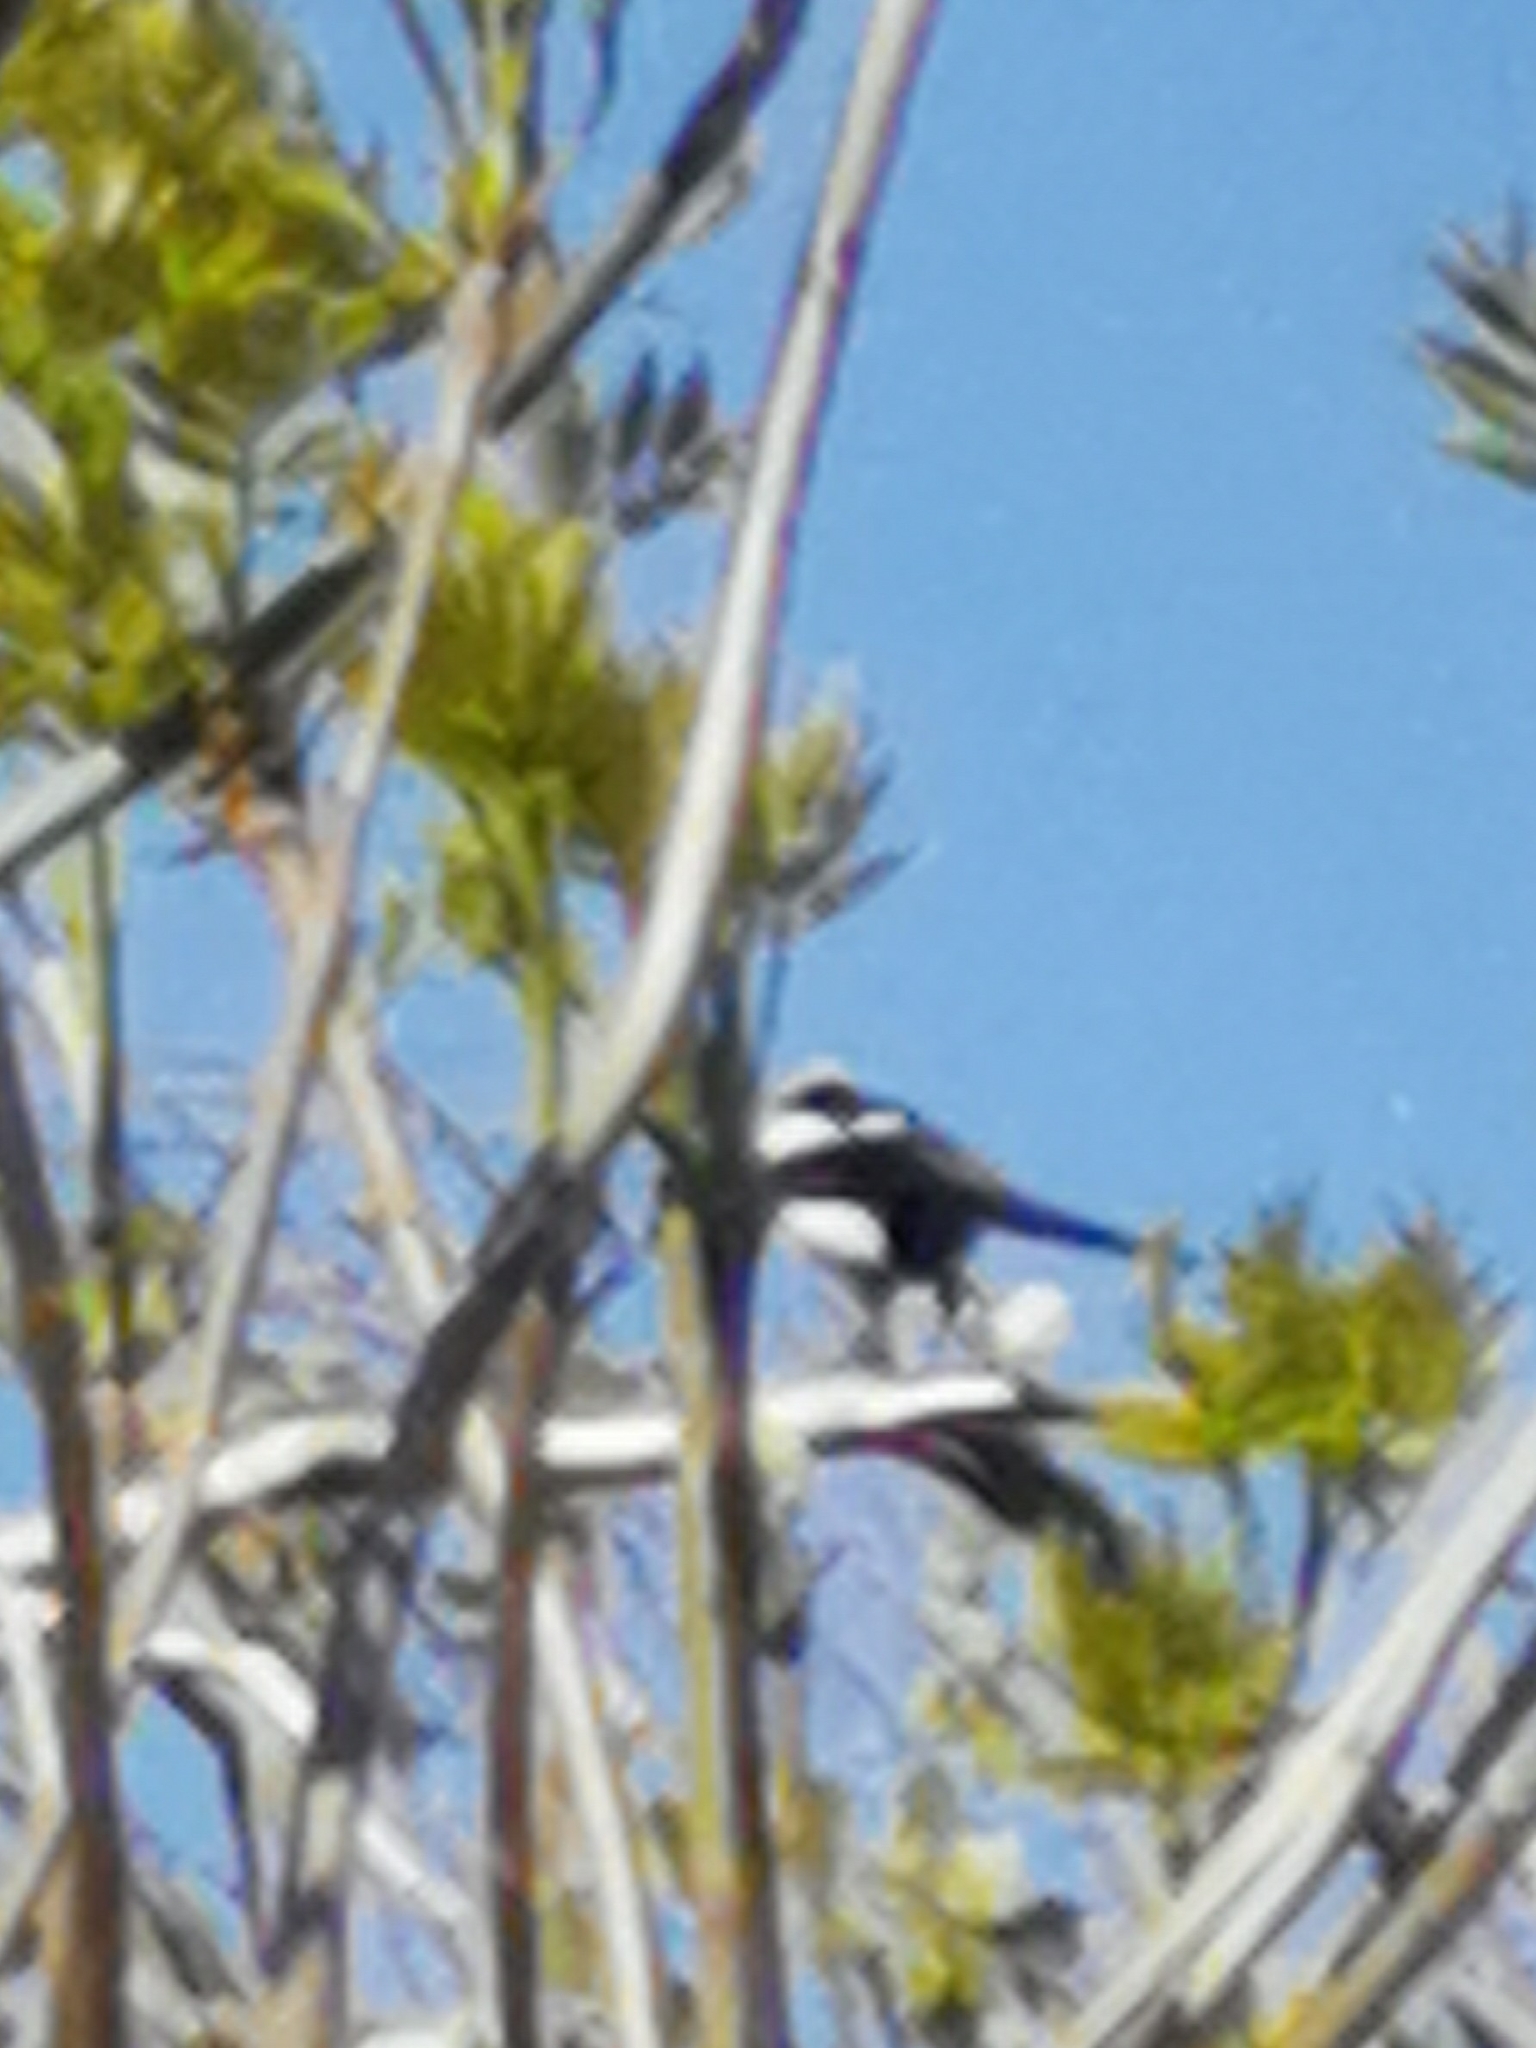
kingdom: Animalia
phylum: Chordata
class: Aves
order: Passeriformes
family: Corvidae
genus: Pica
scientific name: Pica pica
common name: Eurasian magpie
